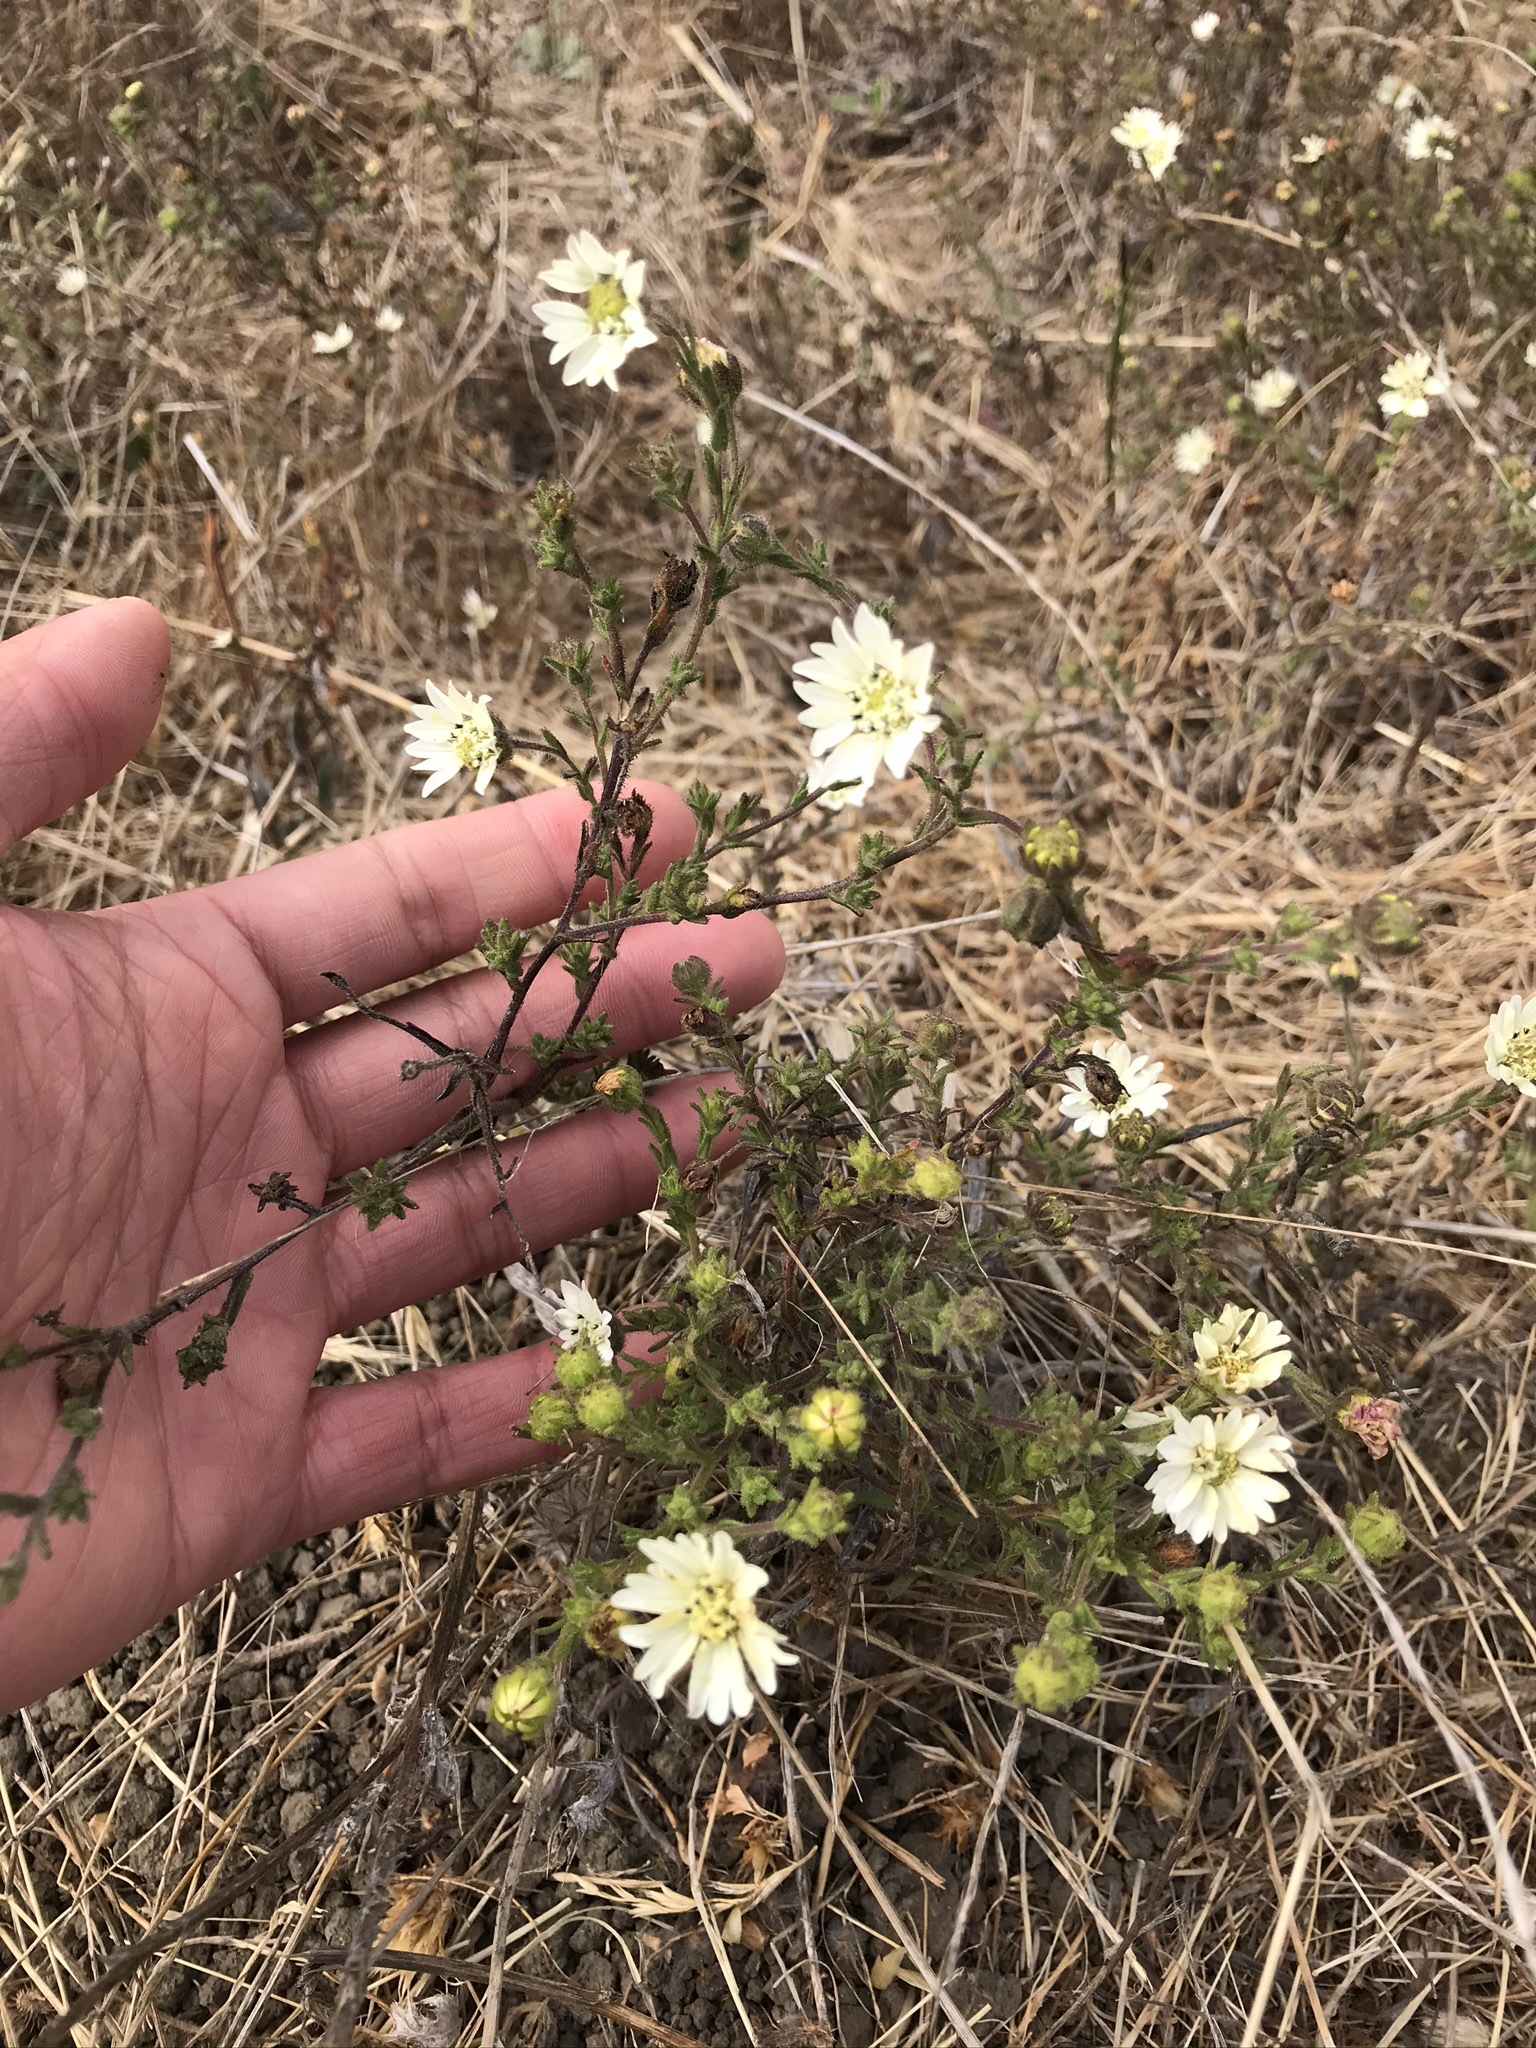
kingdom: Plantae
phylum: Tracheophyta
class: Magnoliopsida
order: Asterales
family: Asteraceae
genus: Hemizonia
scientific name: Hemizonia congesta
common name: Hayfield tarweed
